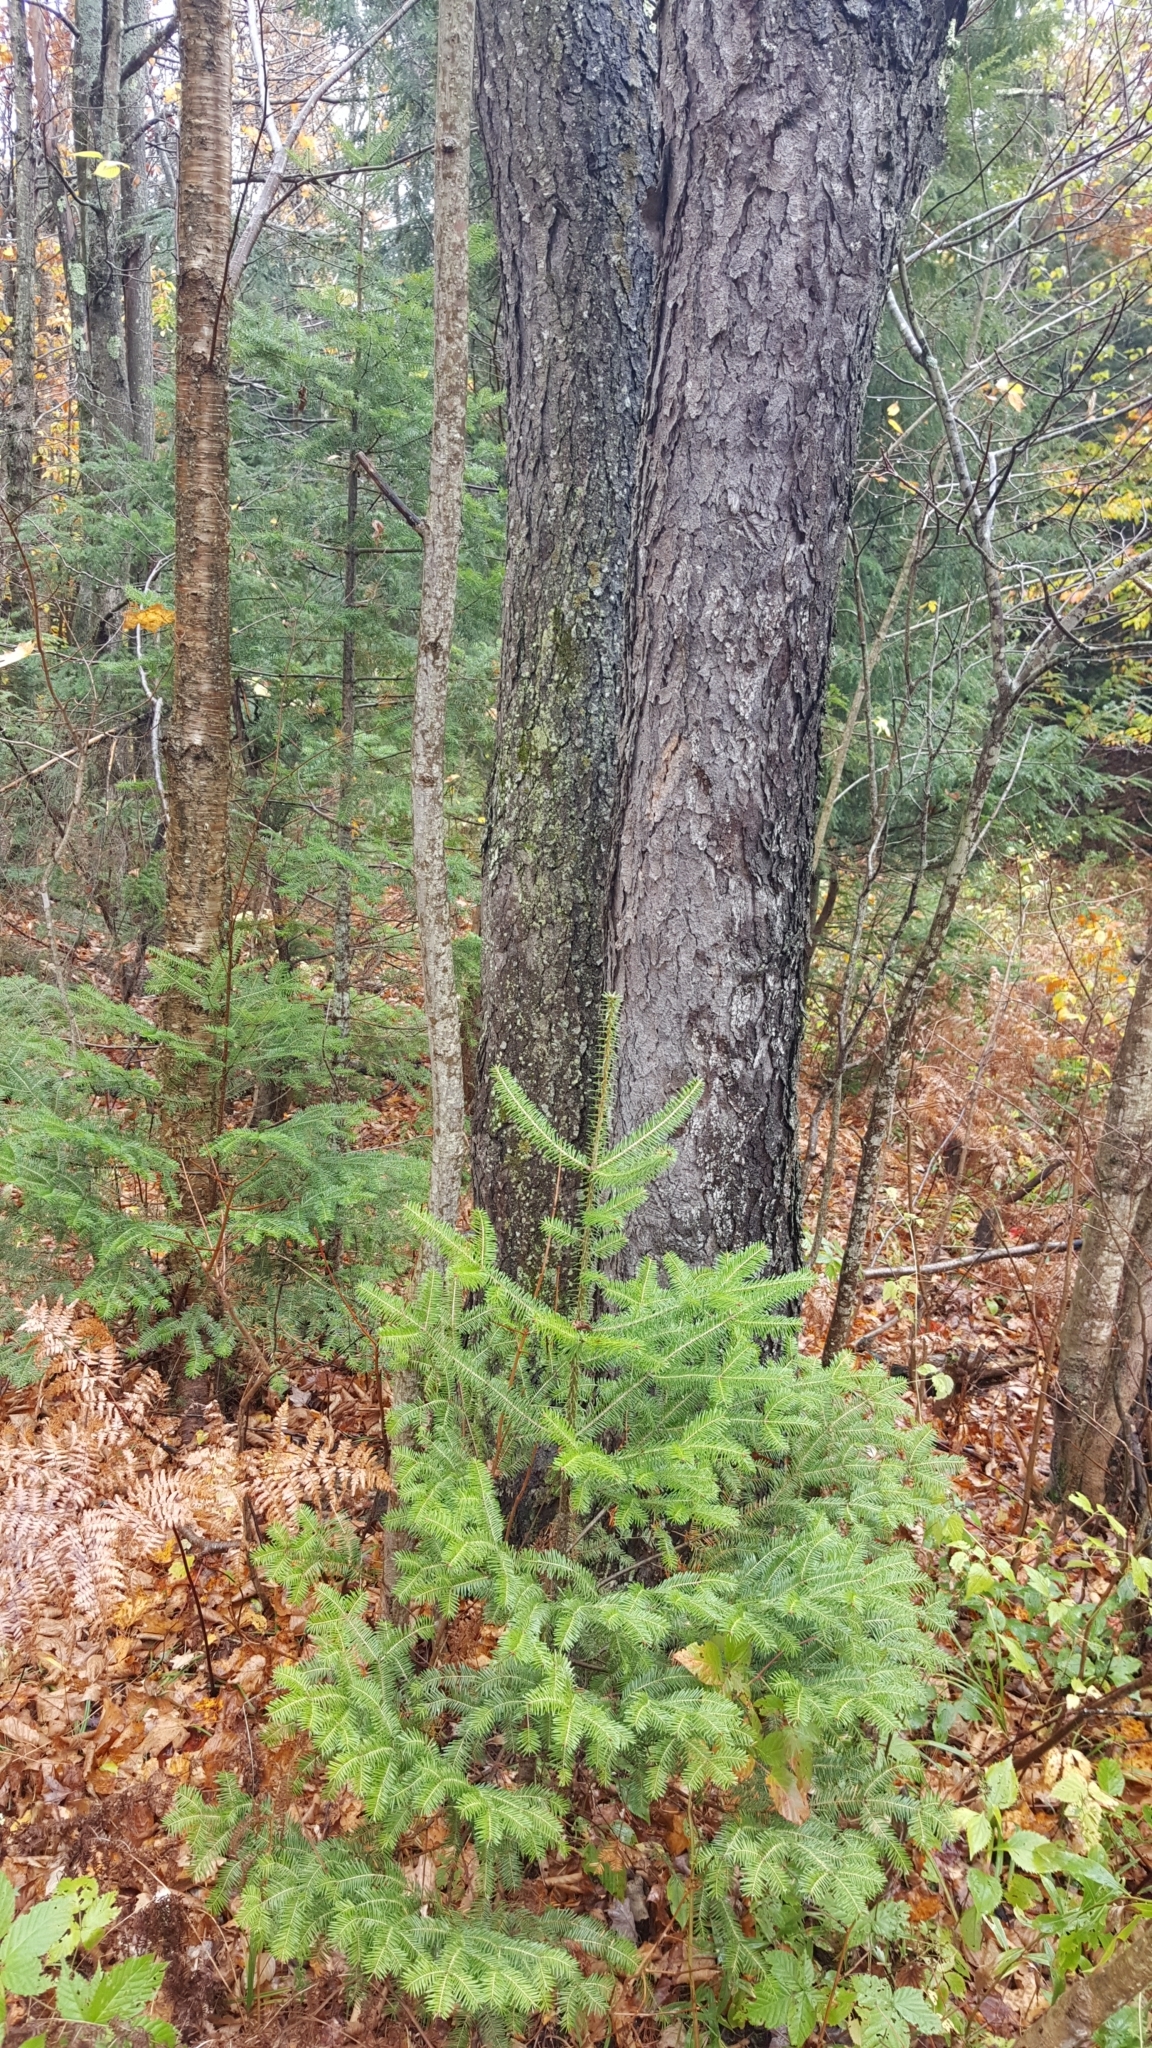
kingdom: Plantae
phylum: Tracheophyta
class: Magnoliopsida
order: Rosales
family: Rosaceae
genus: Prunus
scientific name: Prunus serotina
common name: Black cherry
